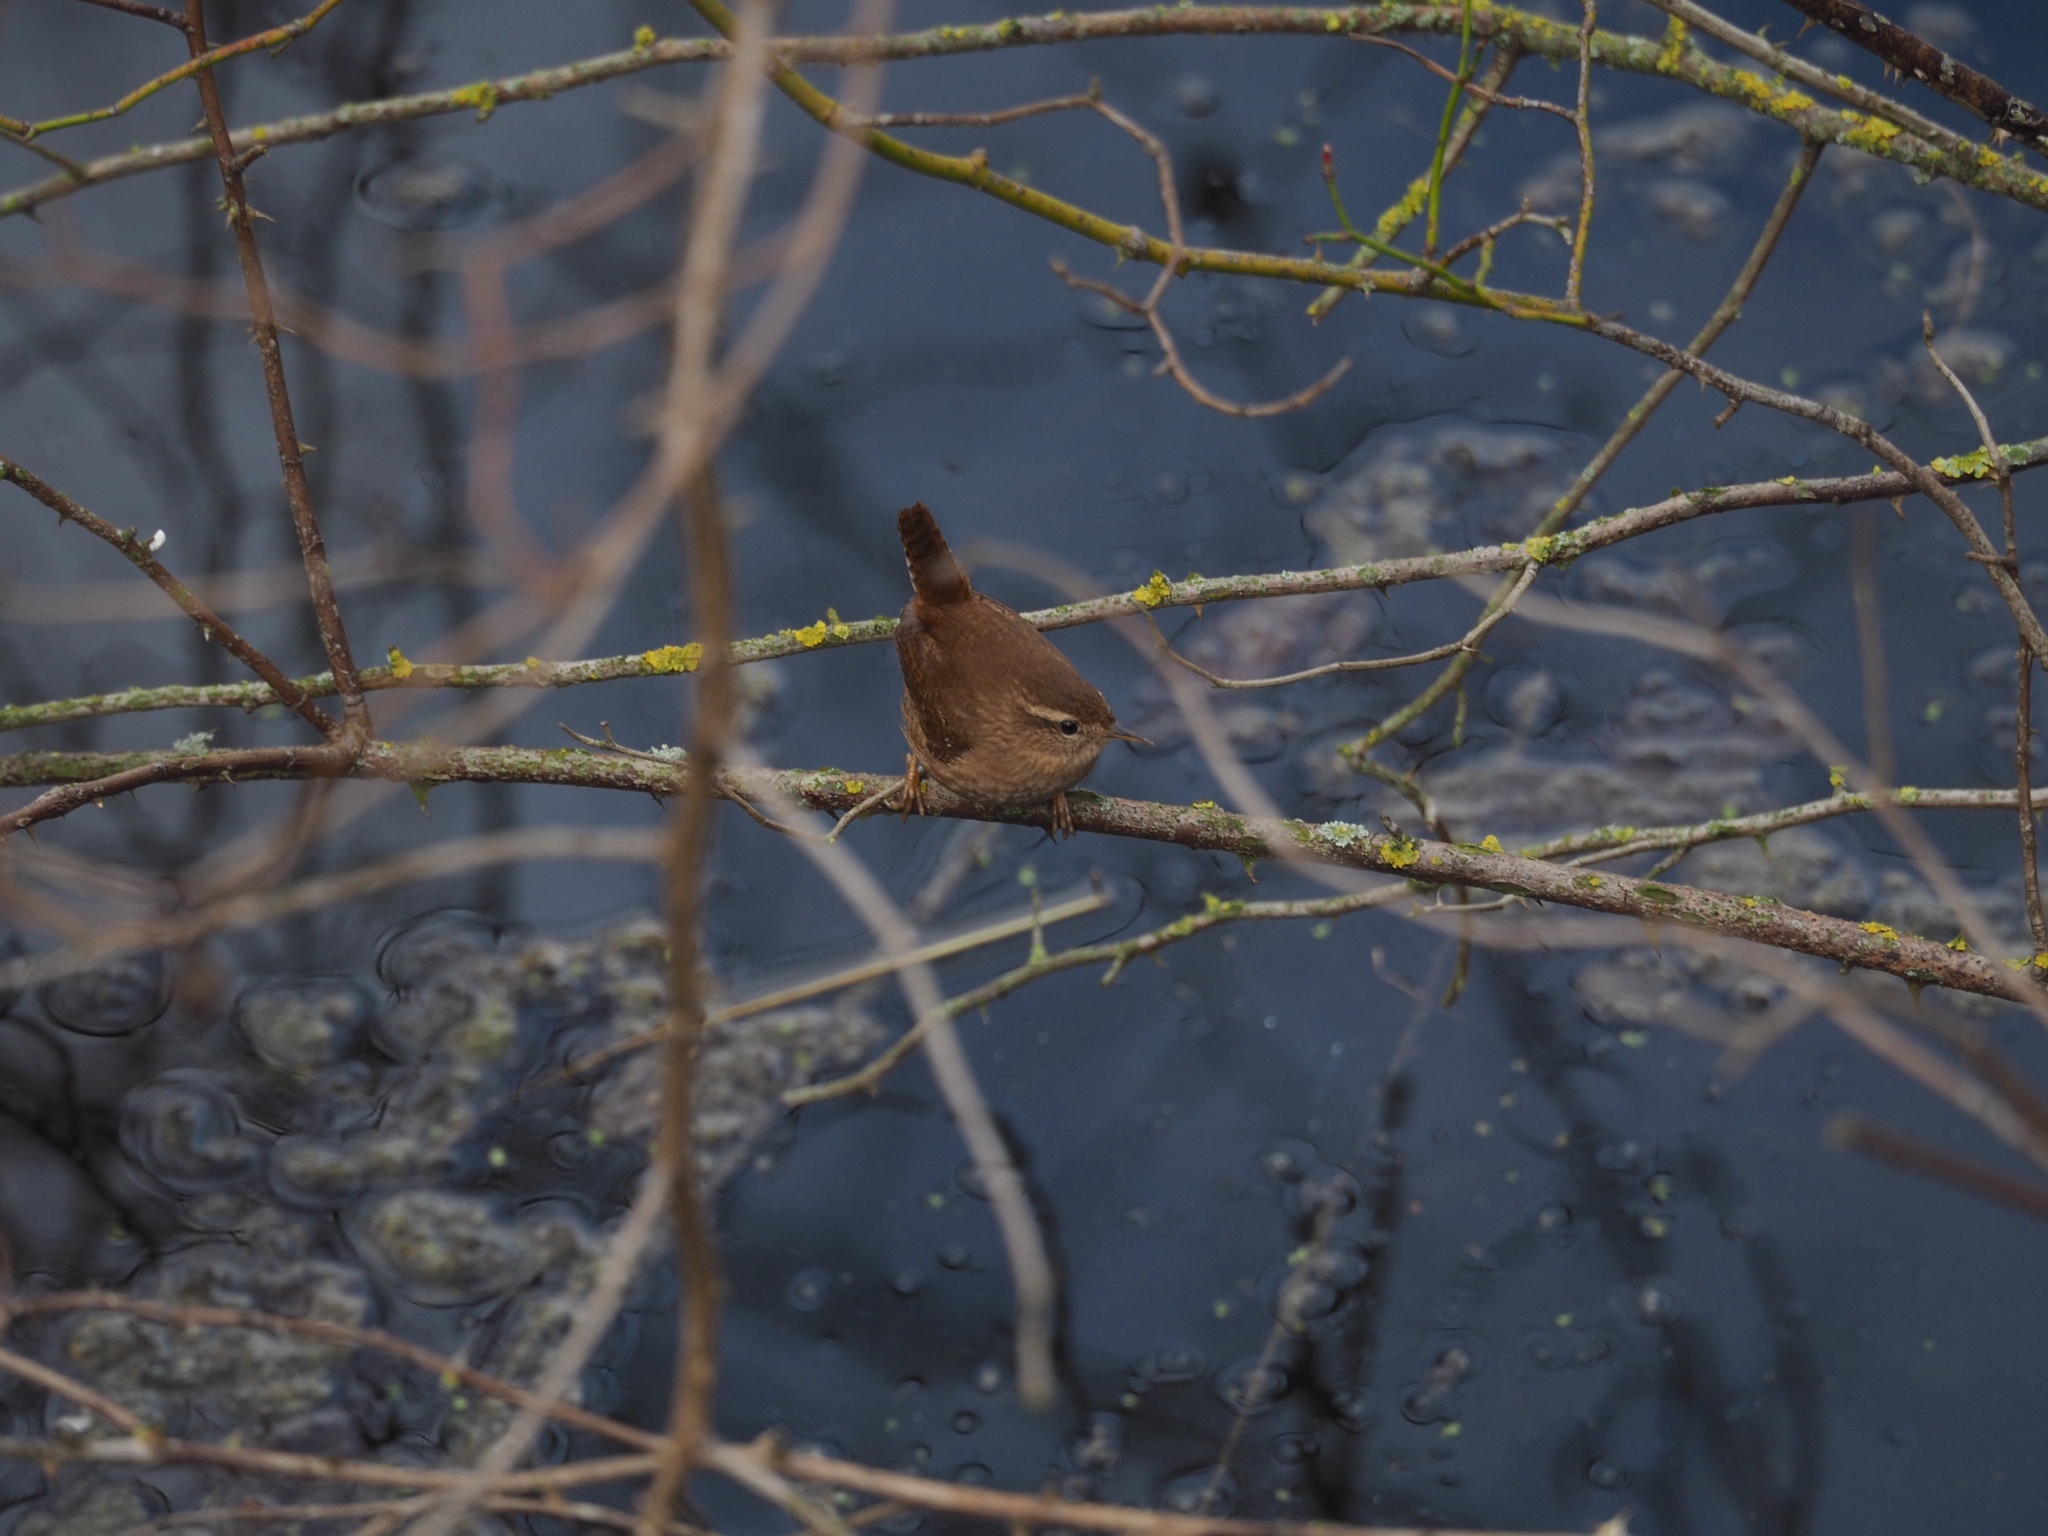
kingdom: Animalia
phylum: Chordata
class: Aves
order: Passeriformes
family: Troglodytidae
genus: Troglodytes
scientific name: Troglodytes troglodytes
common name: Eurasian wren
